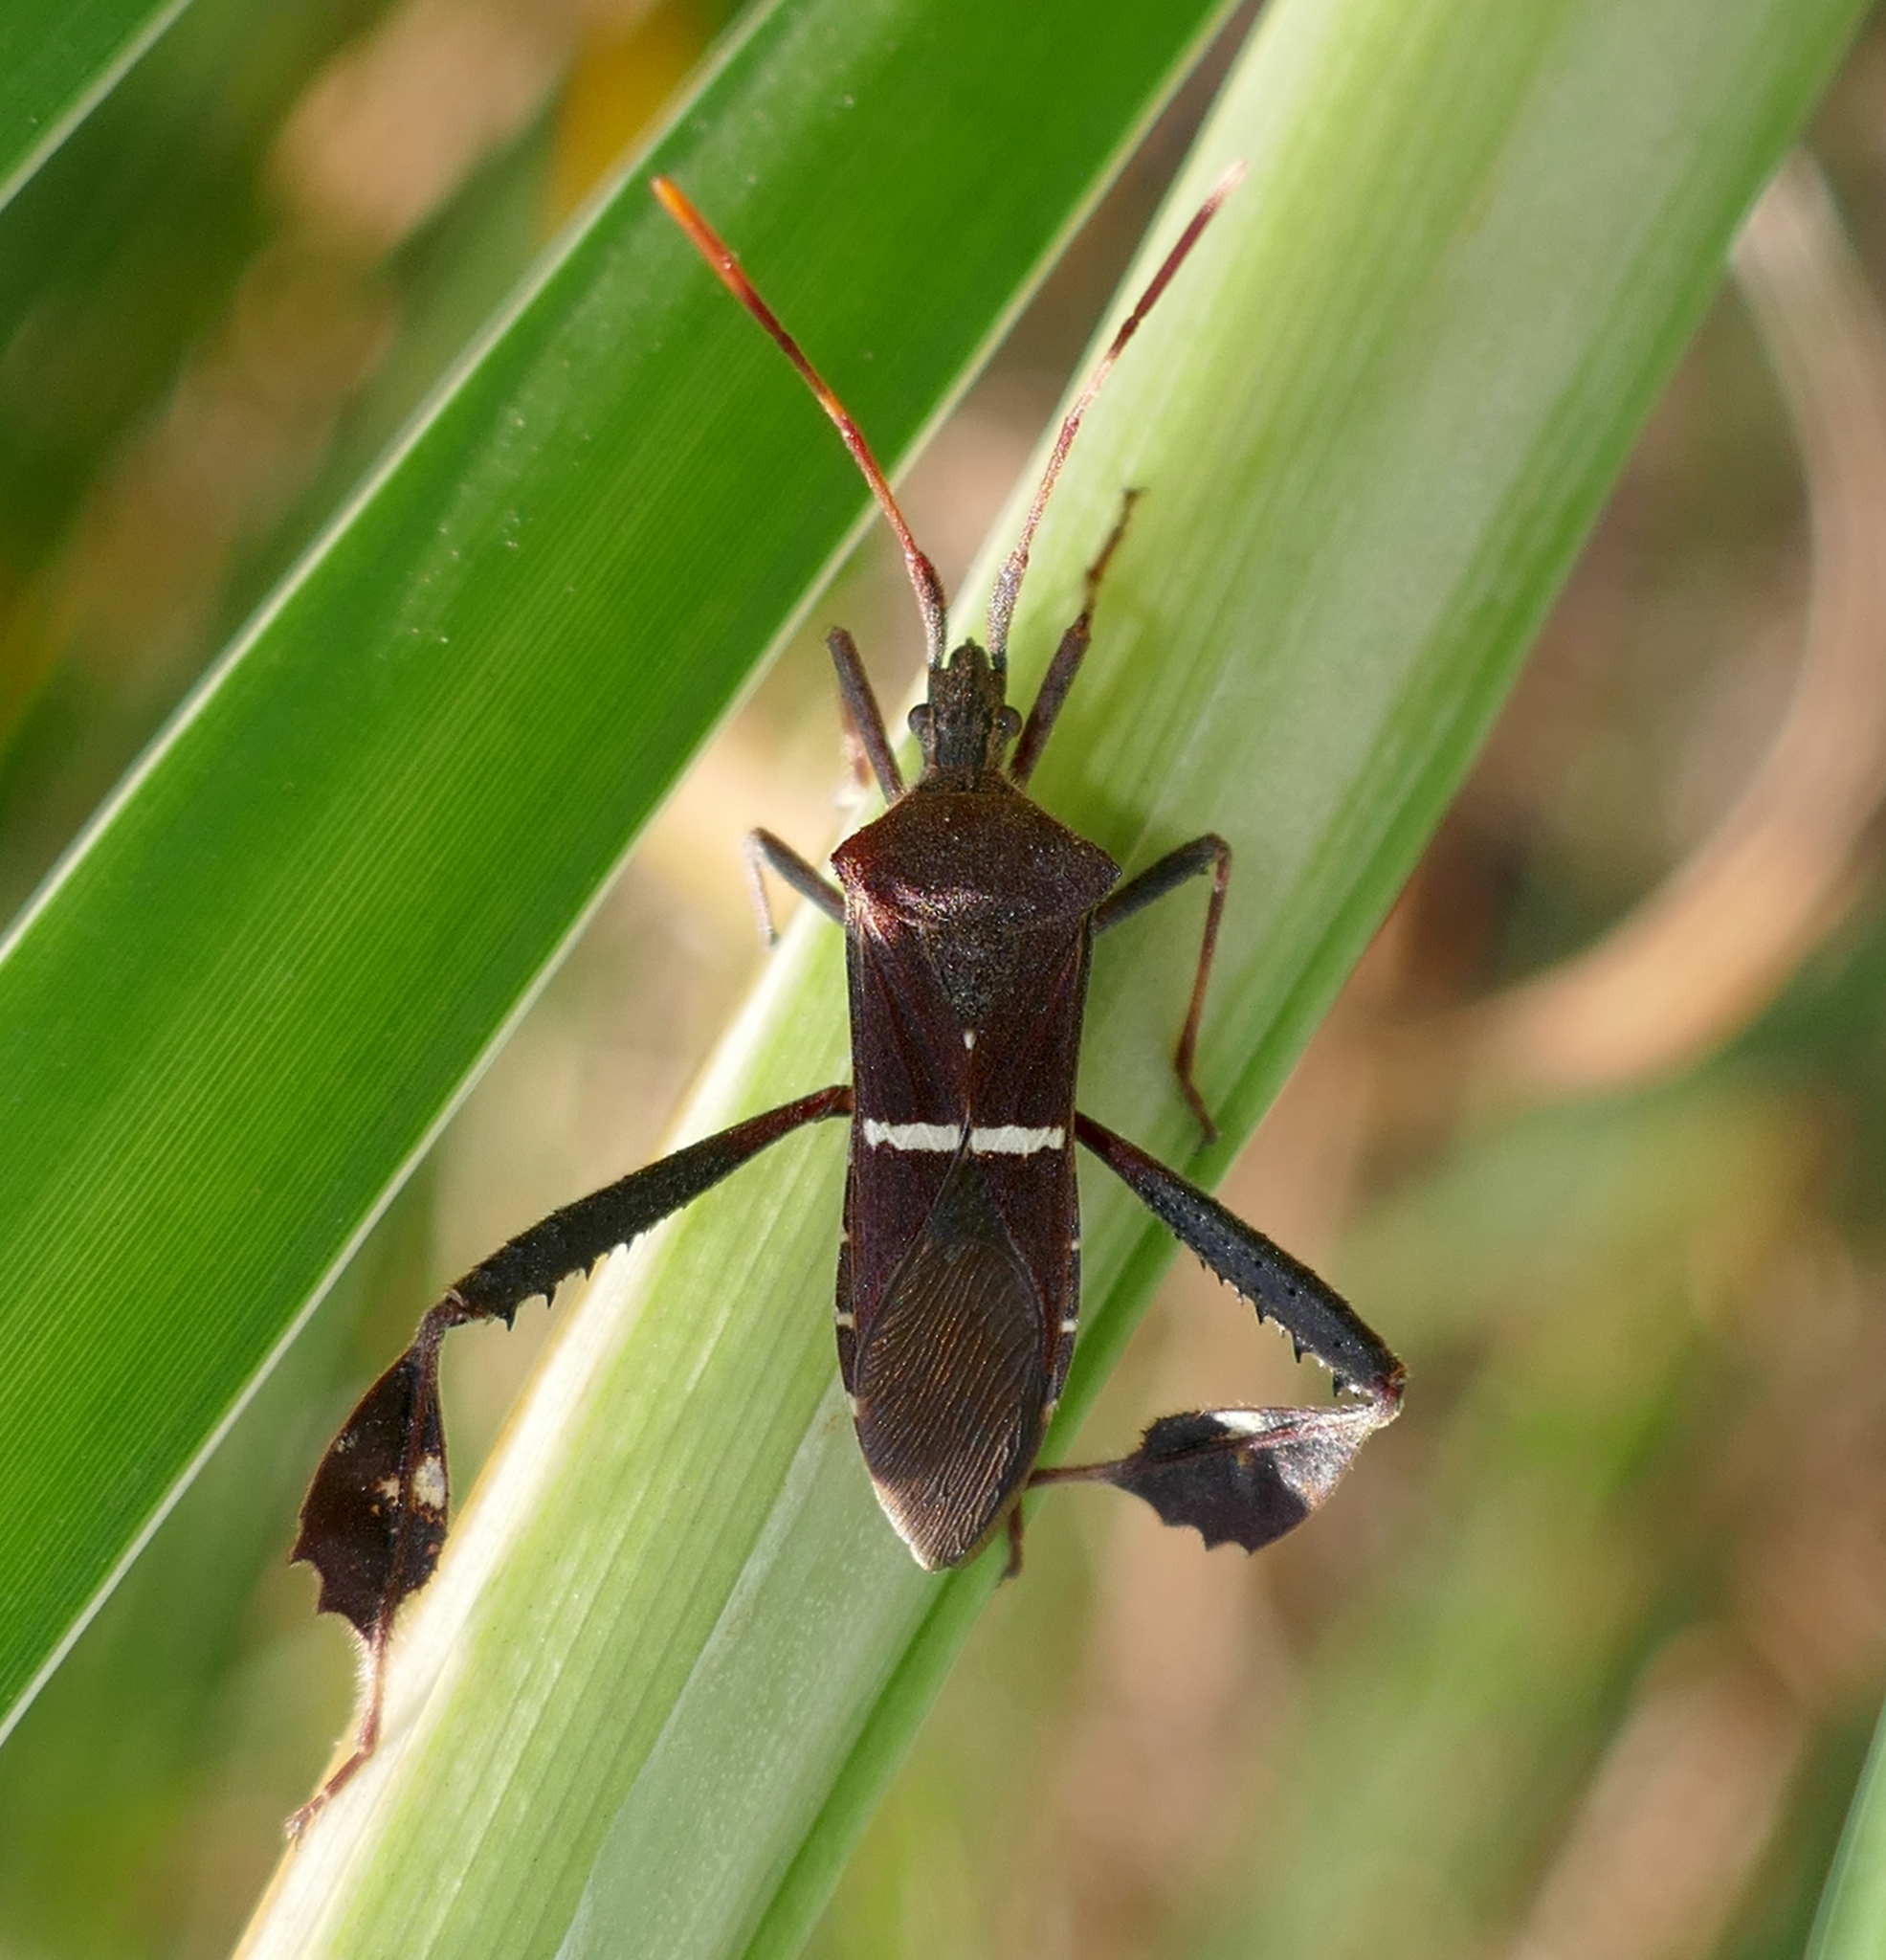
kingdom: Animalia
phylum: Arthropoda
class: Insecta
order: Hemiptera
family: Coreidae
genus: Leptoglossus
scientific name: Leptoglossus phyllopus
